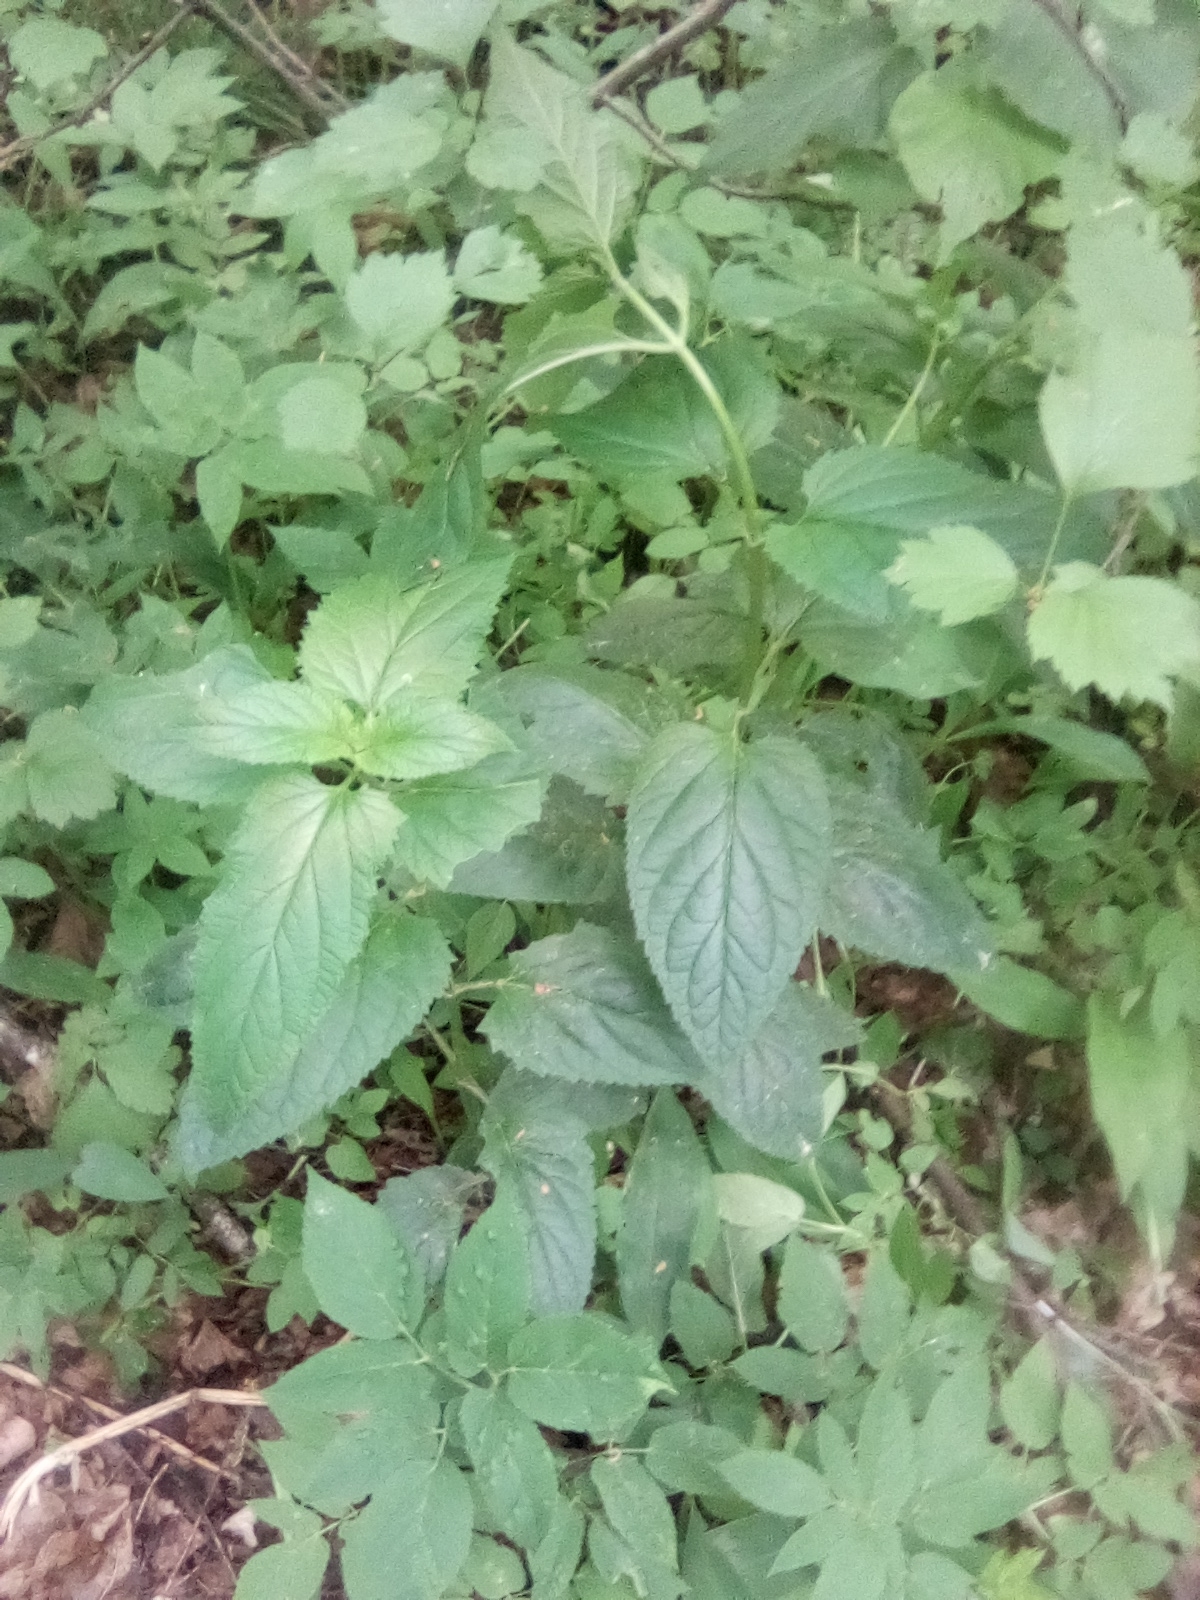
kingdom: Plantae
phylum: Tracheophyta
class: Magnoliopsida
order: Lamiales
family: Scrophulariaceae
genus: Scrophularia
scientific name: Scrophularia nodosa
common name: Common figwort
